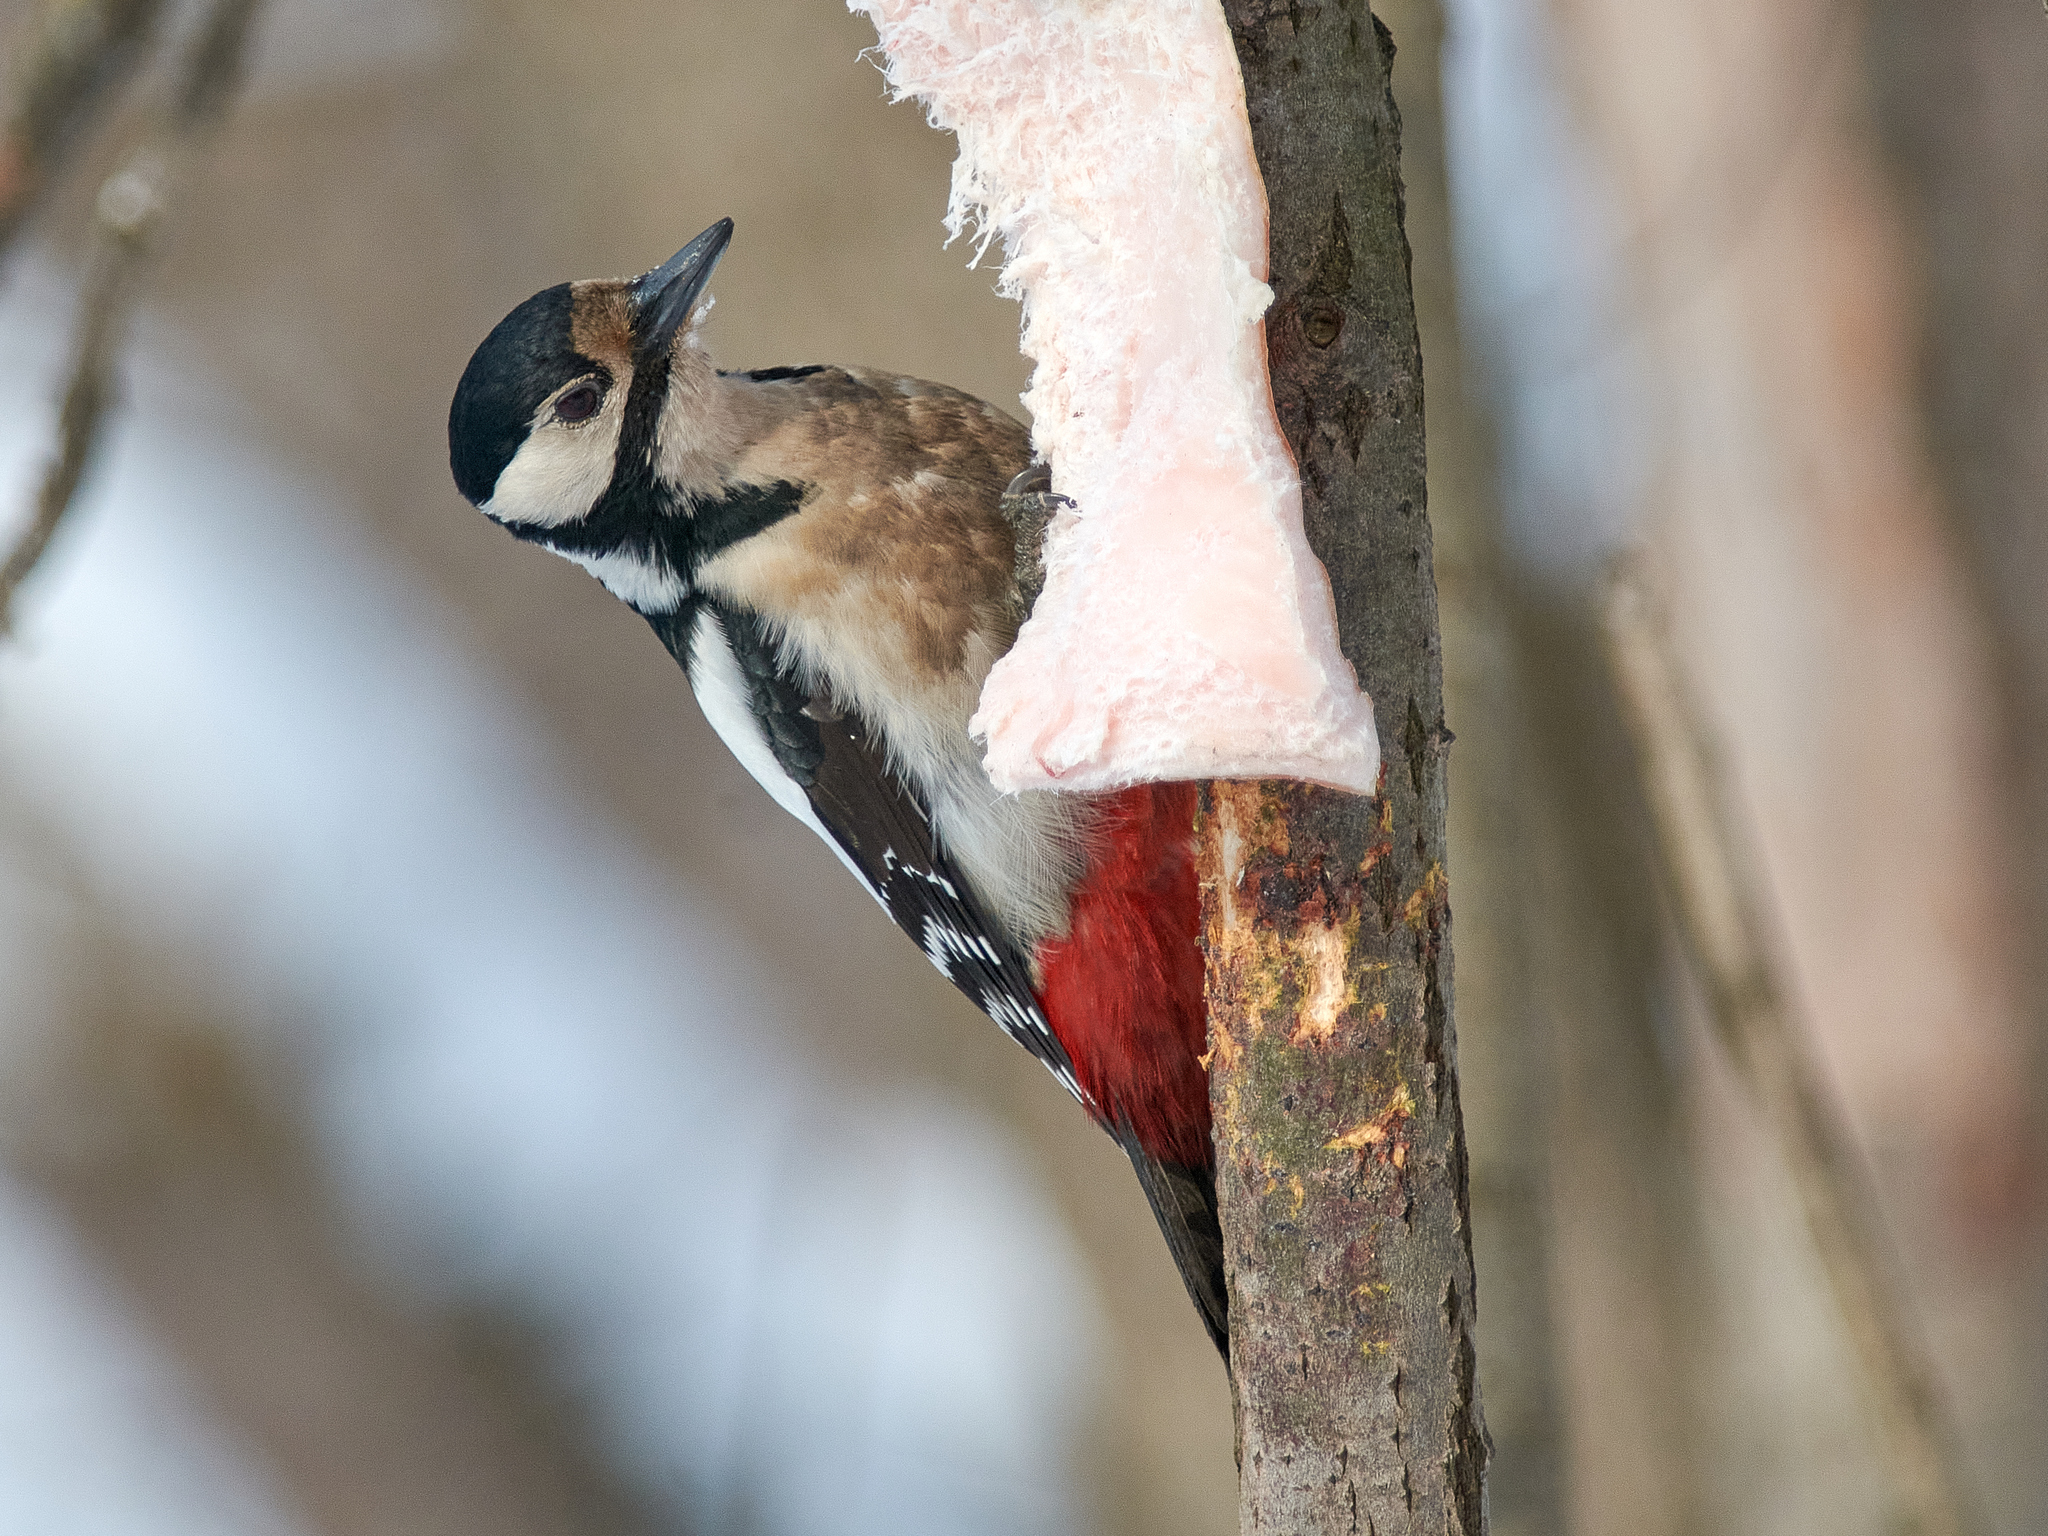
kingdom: Animalia
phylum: Chordata
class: Aves
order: Piciformes
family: Picidae
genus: Dendrocopos
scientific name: Dendrocopos major
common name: Great spotted woodpecker
